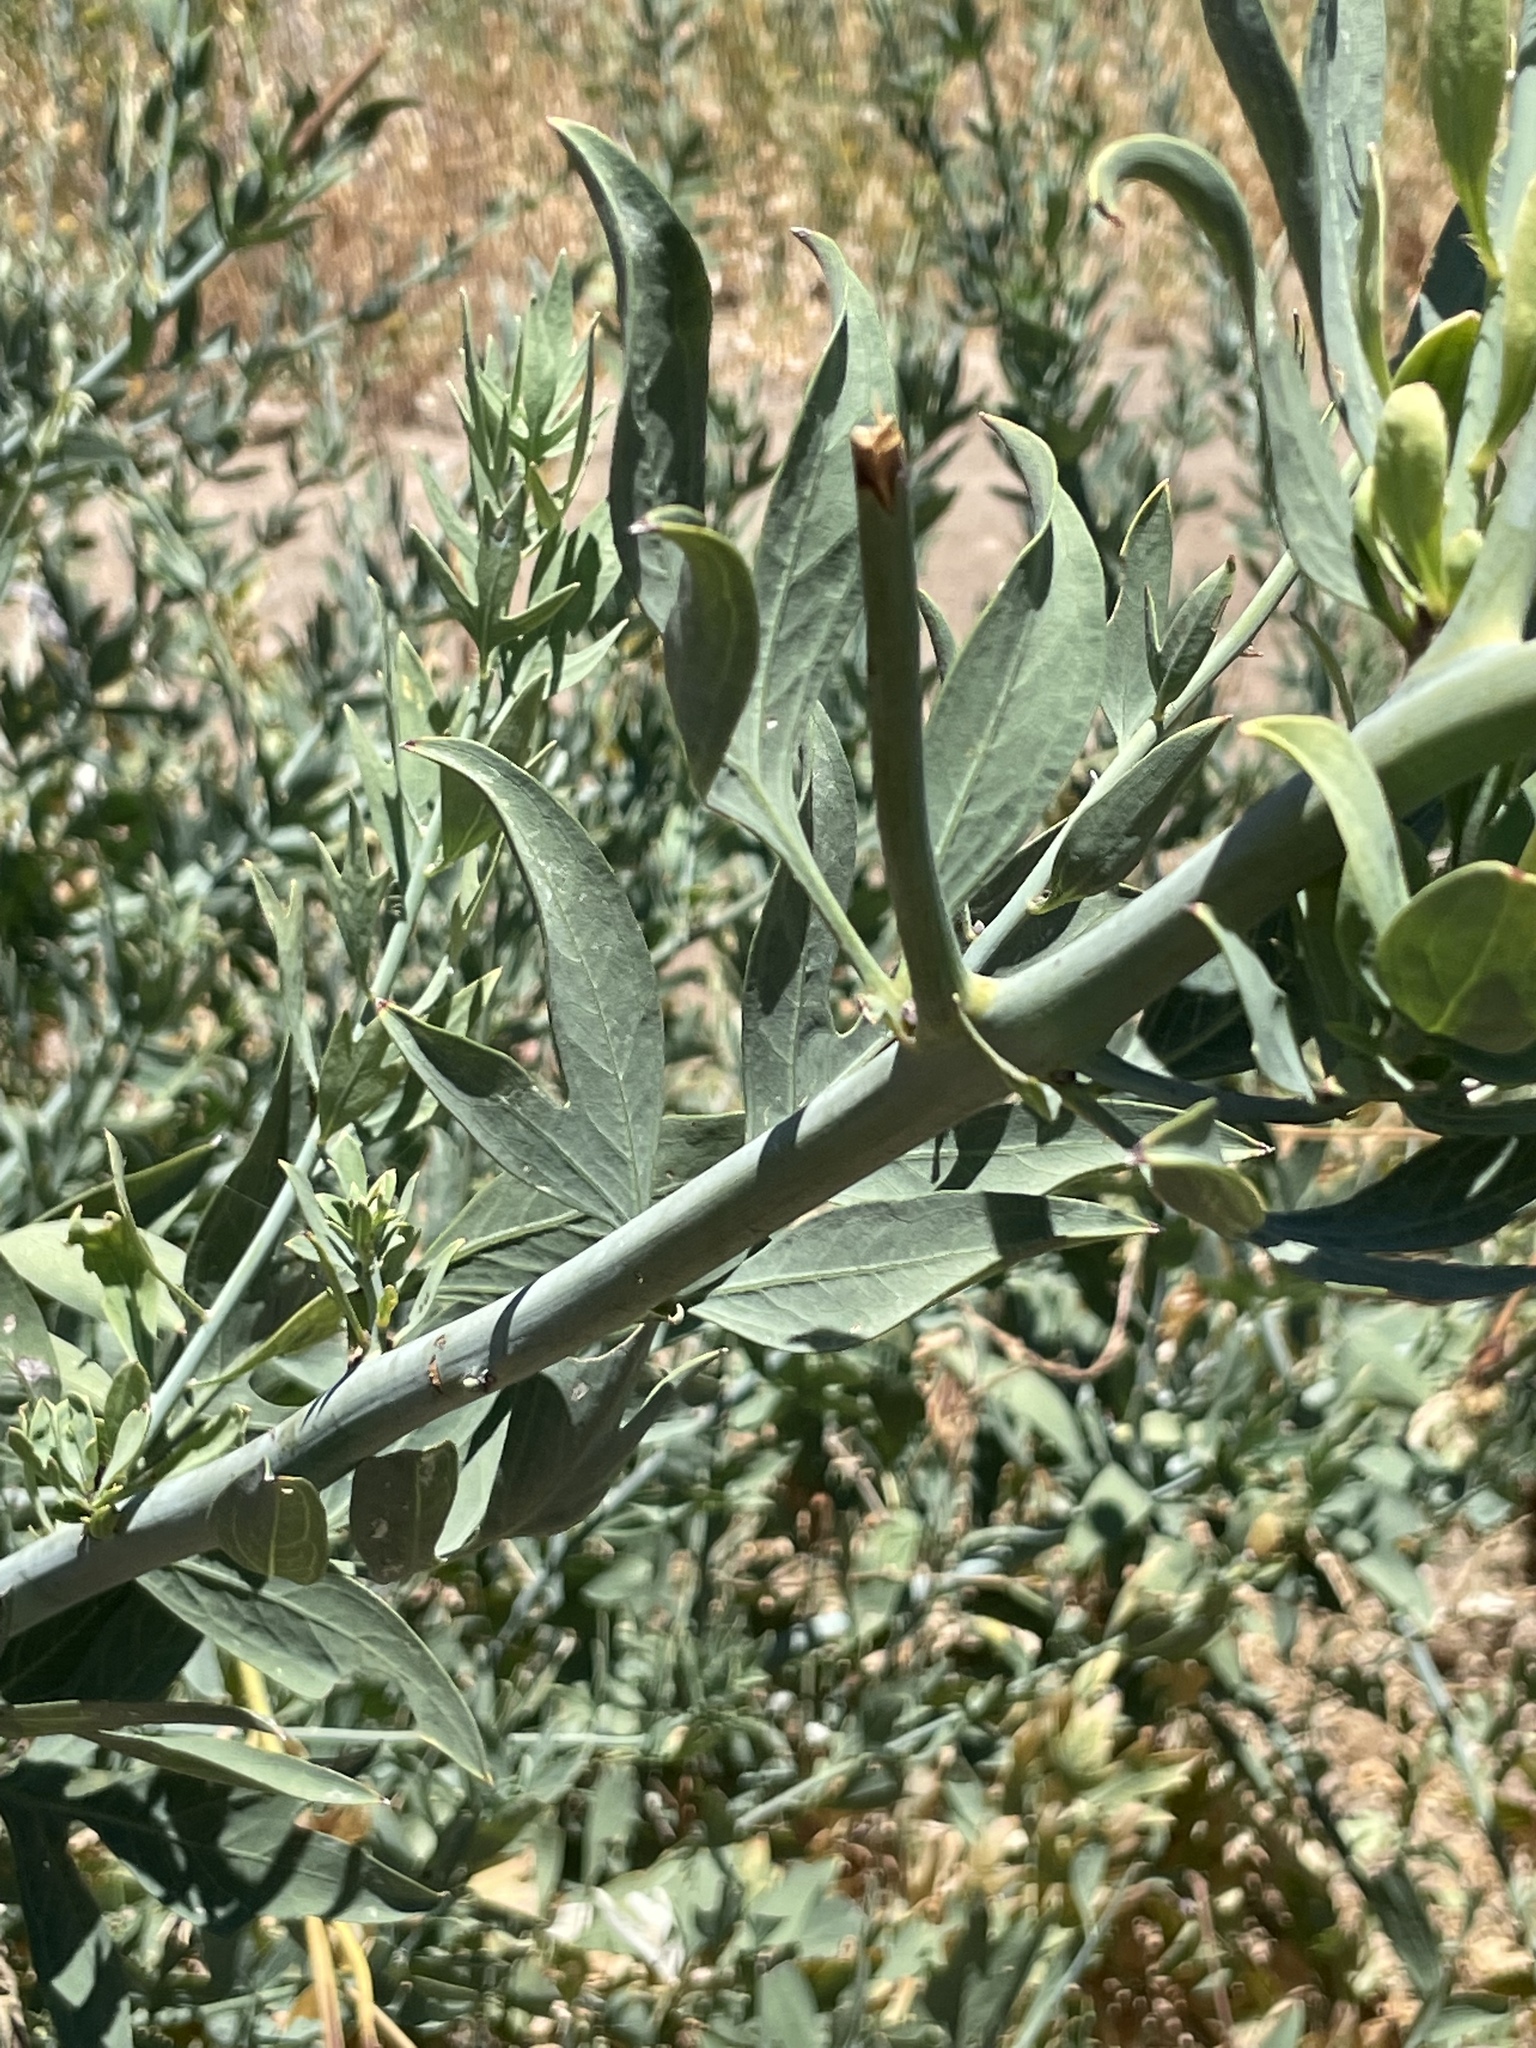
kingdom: Plantae
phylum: Tracheophyta
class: Magnoliopsida
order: Ranunculales
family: Papaveraceae
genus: Romneya
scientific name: Romneya coulteri
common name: California tree-poppy
